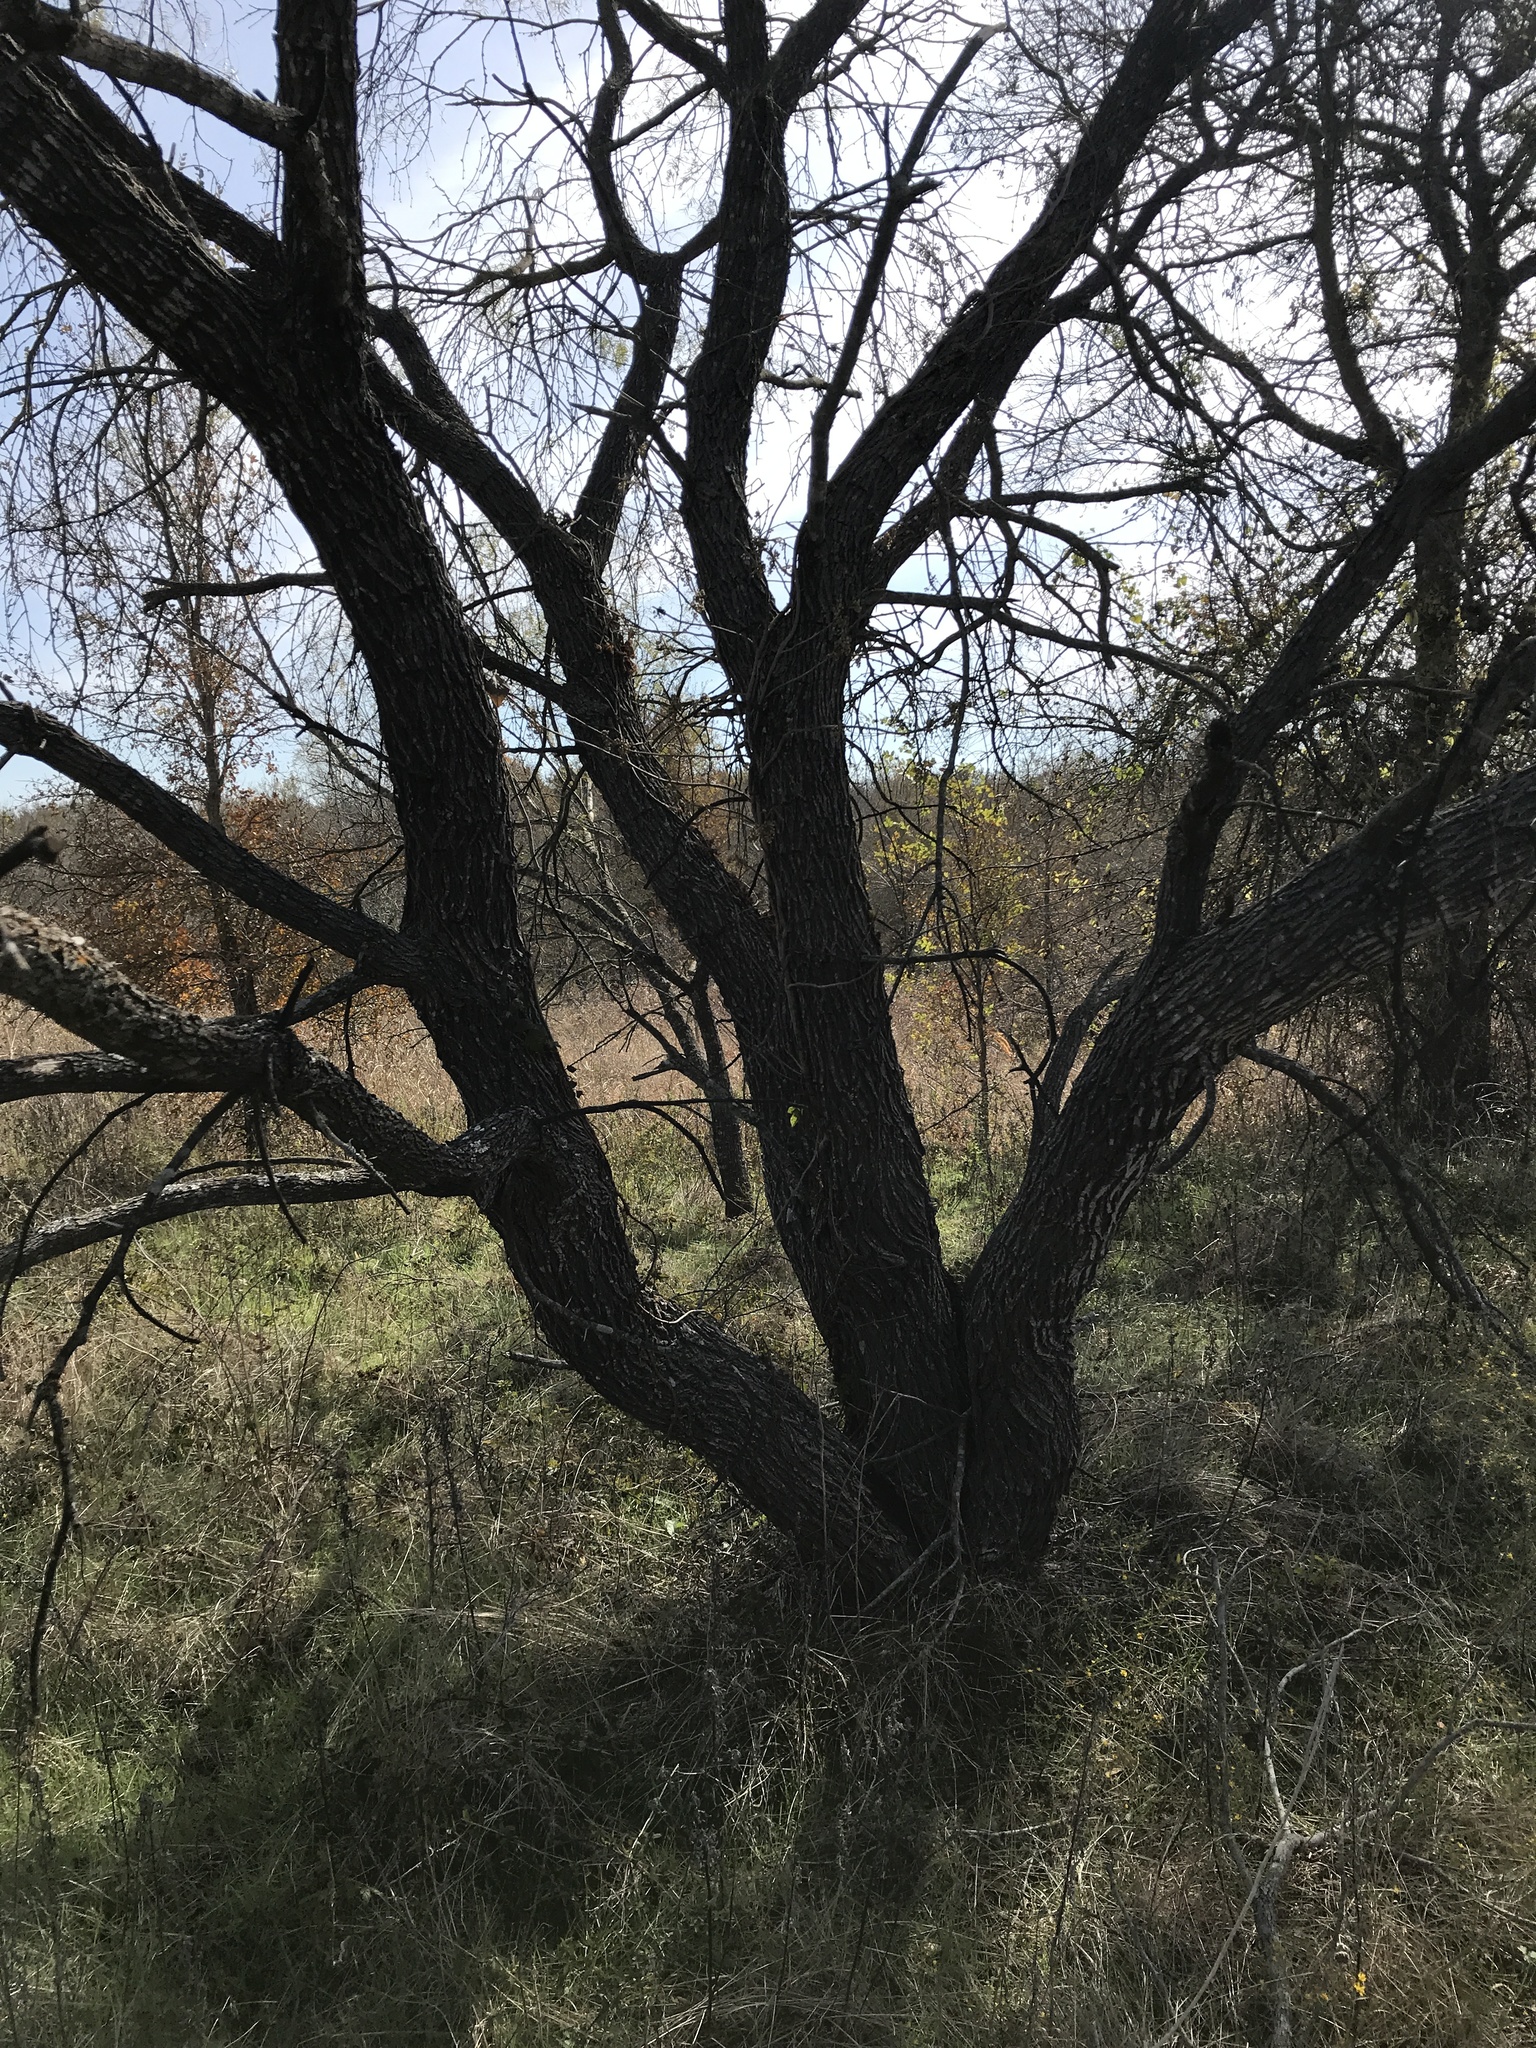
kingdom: Plantae
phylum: Tracheophyta
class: Magnoliopsida
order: Fabales
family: Fabaceae
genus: Prosopis
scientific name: Prosopis glandulosa
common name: Honey mesquite
